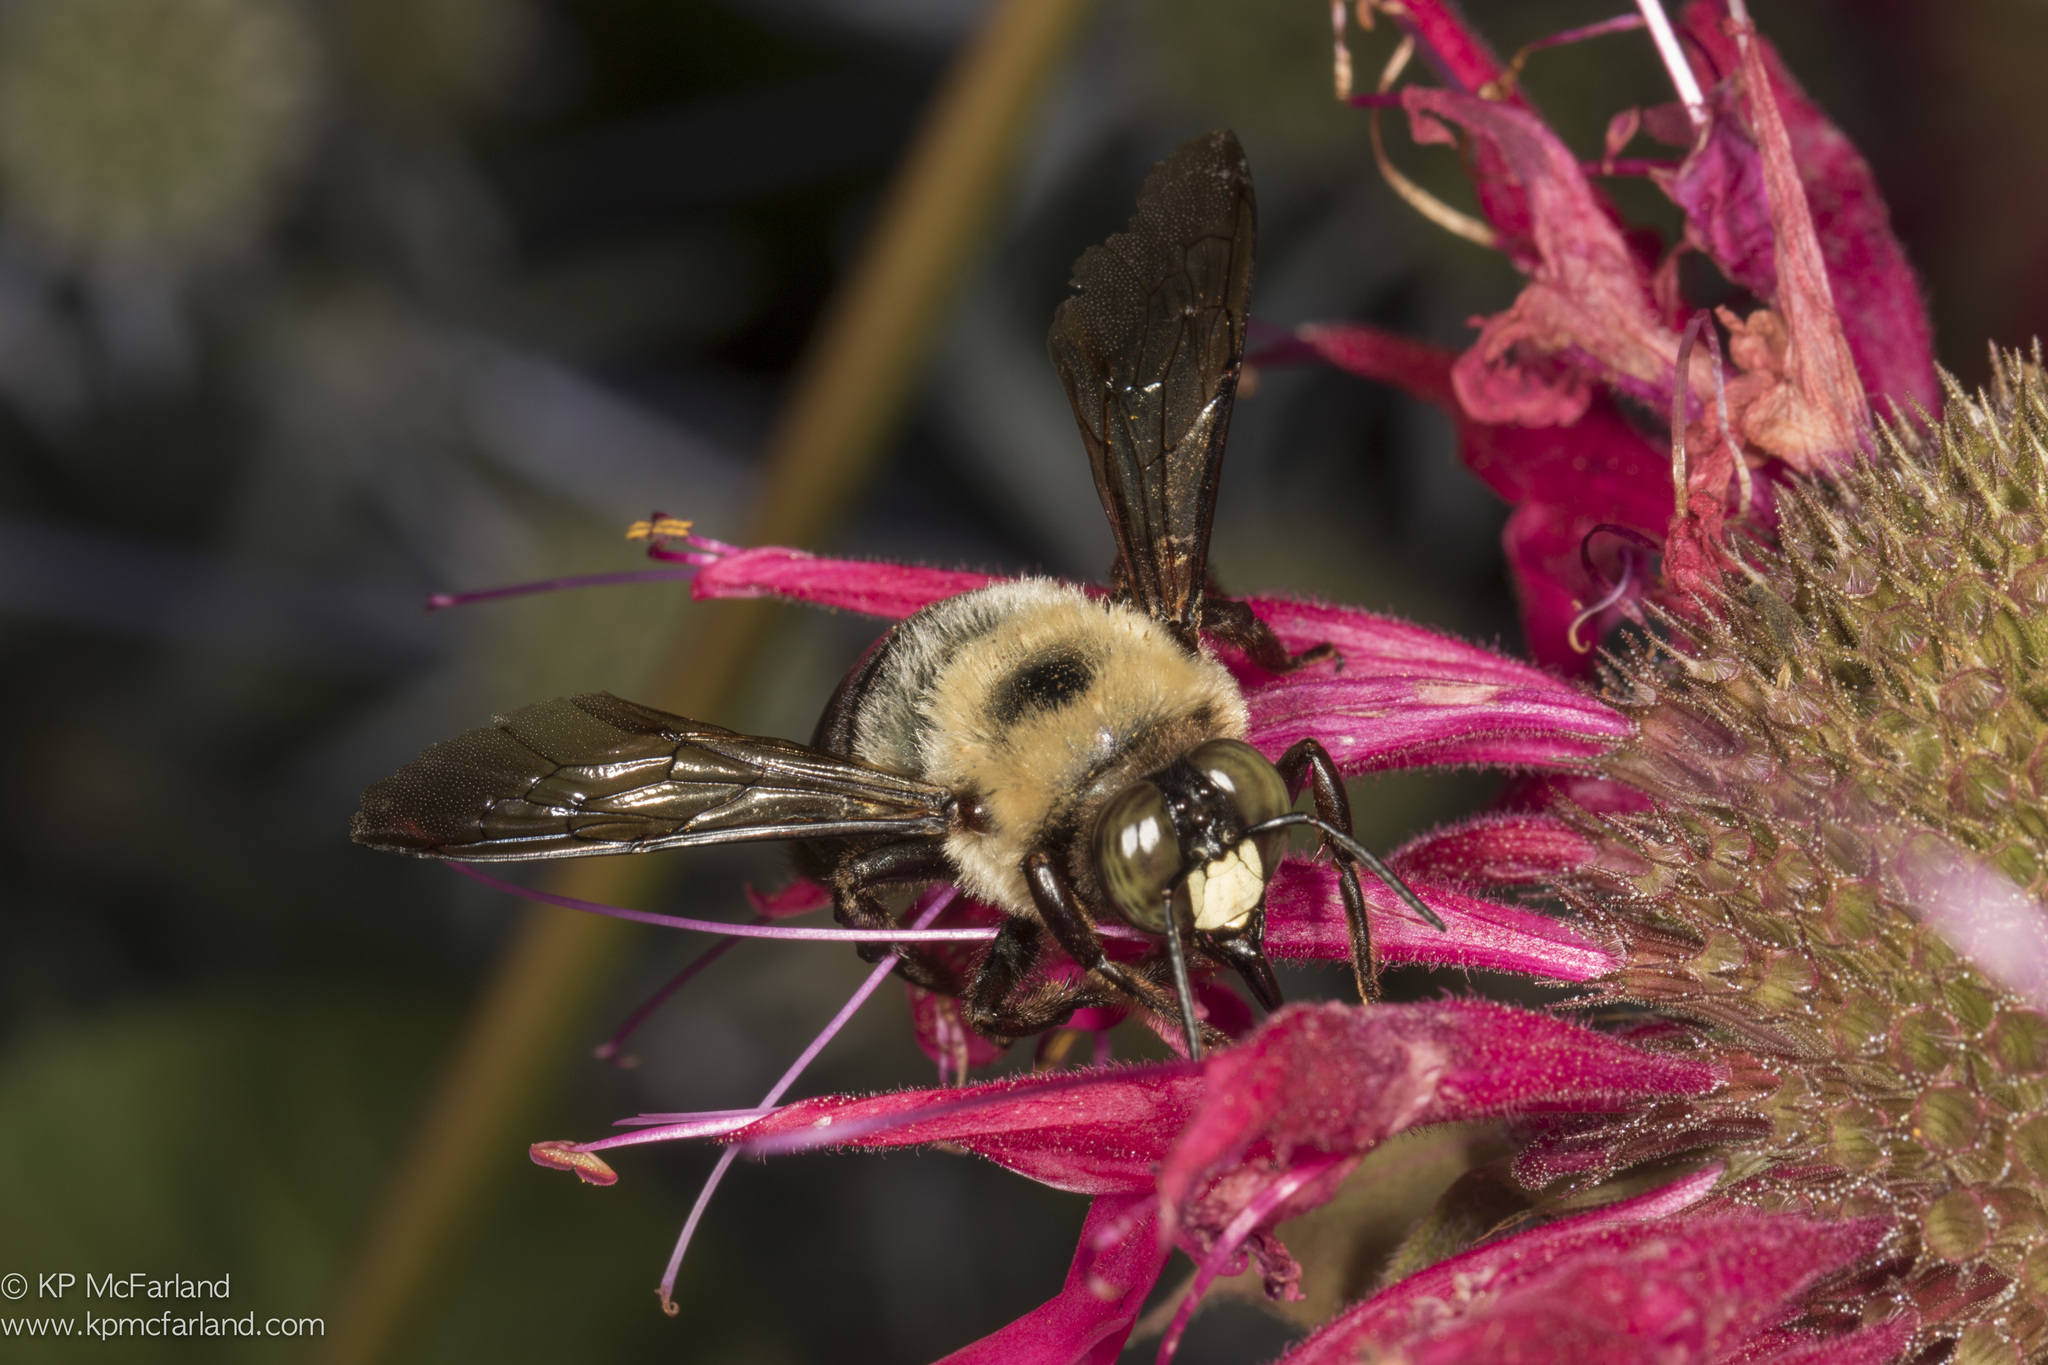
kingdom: Animalia
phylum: Arthropoda
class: Insecta
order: Hymenoptera
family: Apidae
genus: Xylocopa
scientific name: Xylocopa virginica
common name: Carpenter bee
